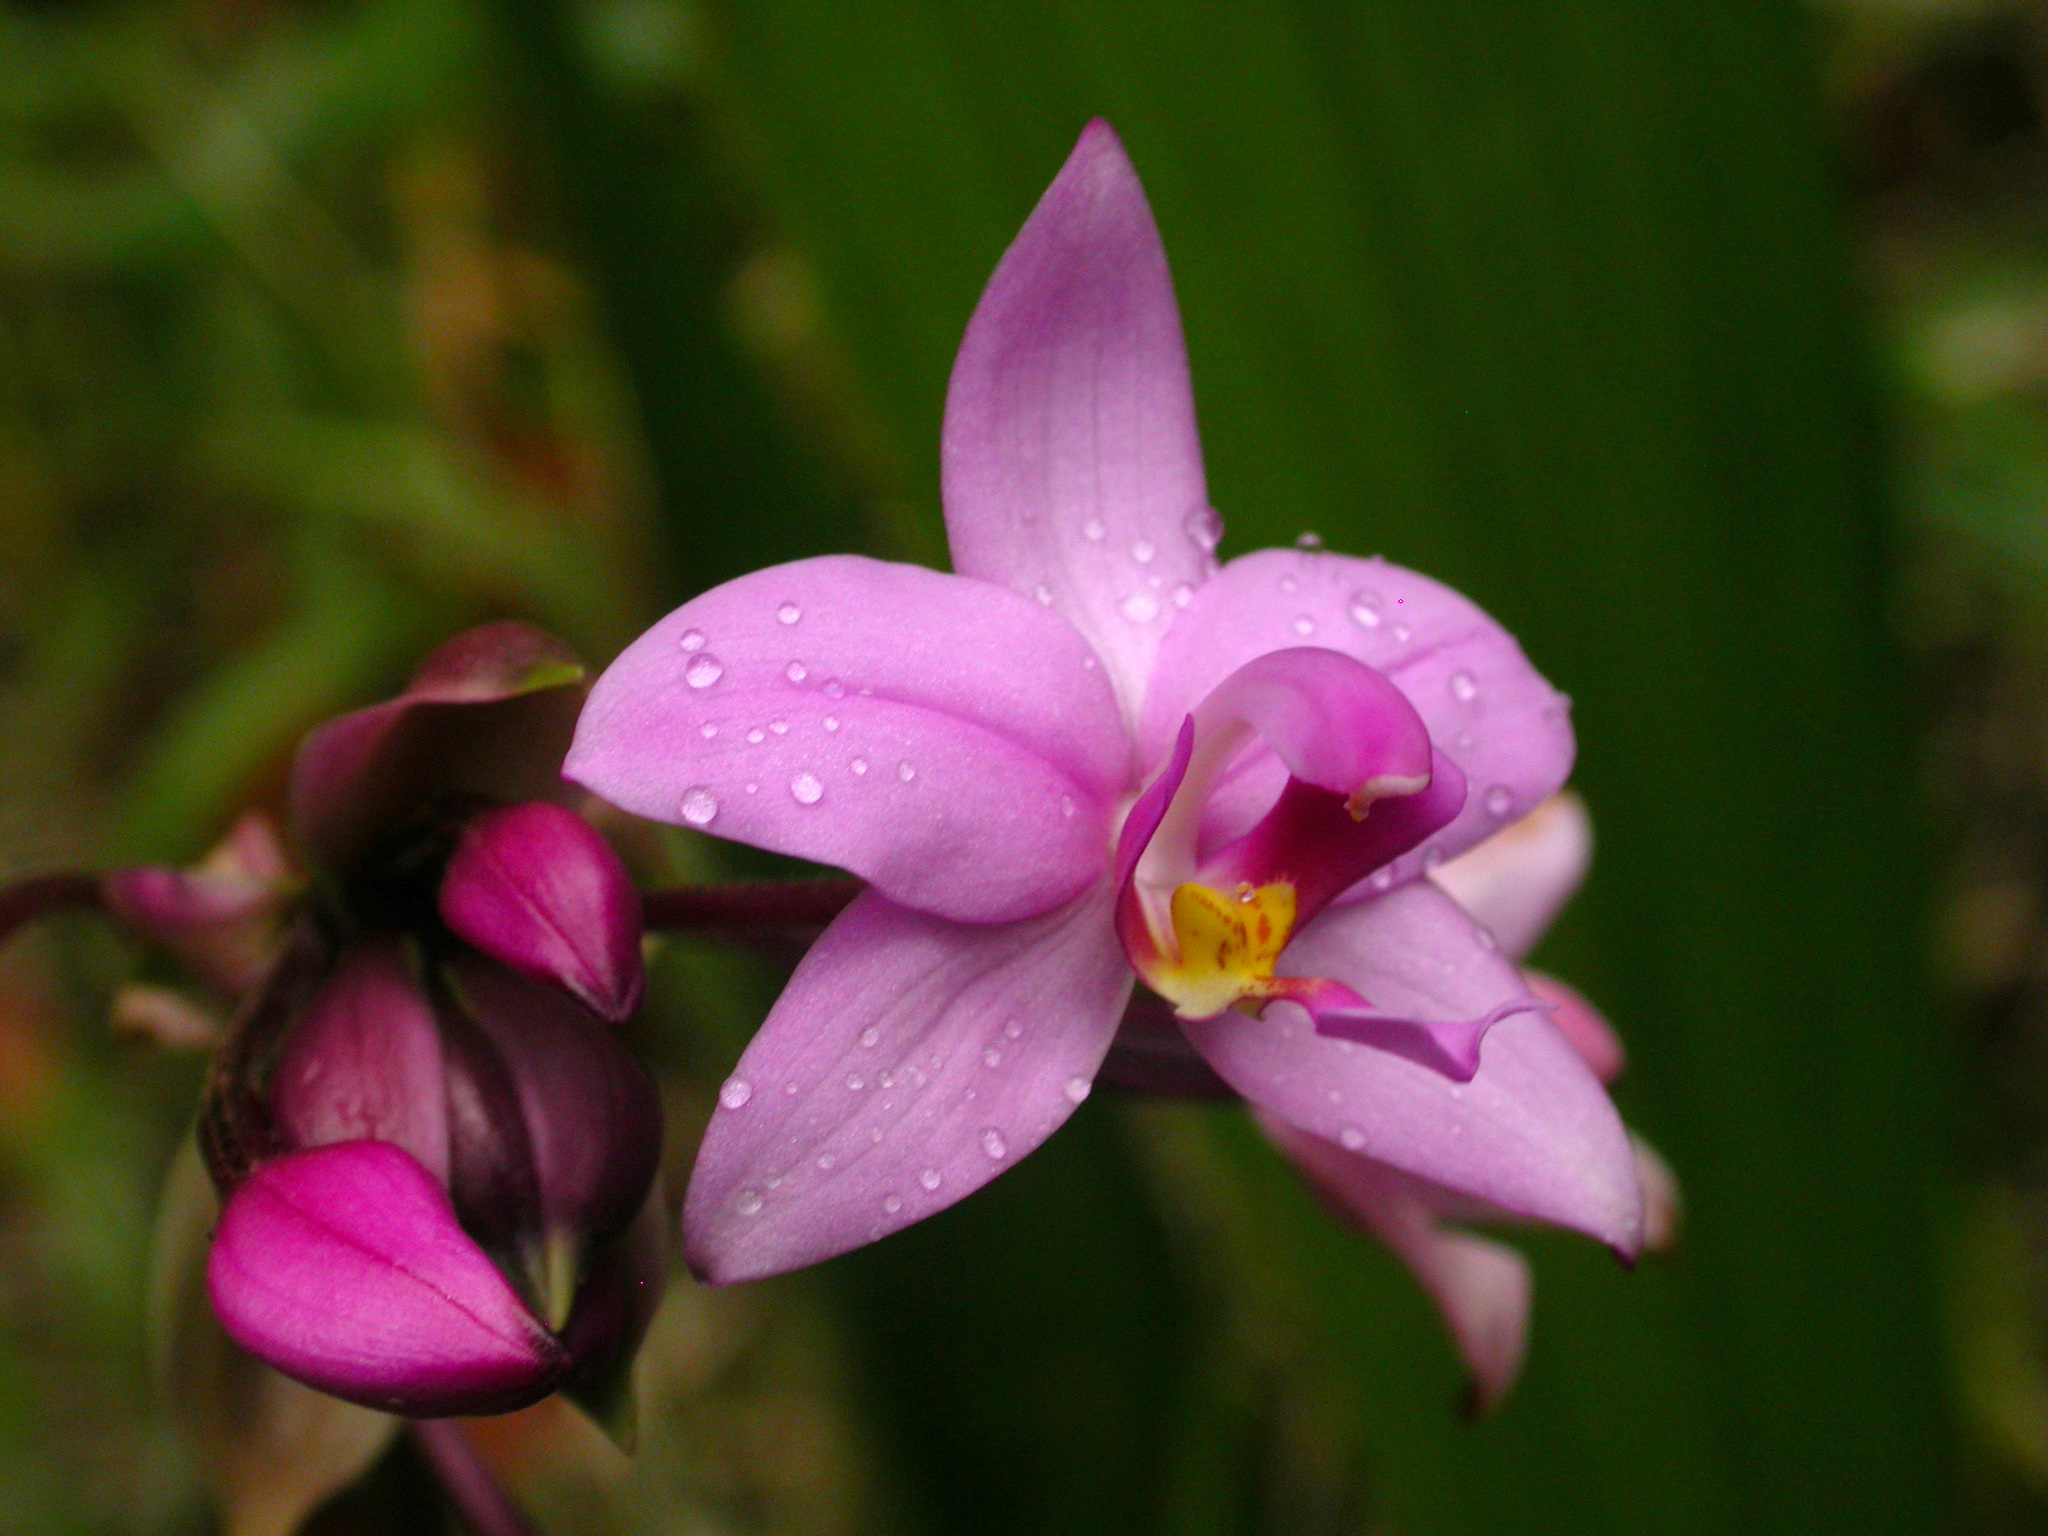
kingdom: Plantae
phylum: Tracheophyta
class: Liliopsida
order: Asparagales
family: Orchidaceae
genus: Spathoglottis
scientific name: Spathoglottis plicata
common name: Philippine ground orchid
